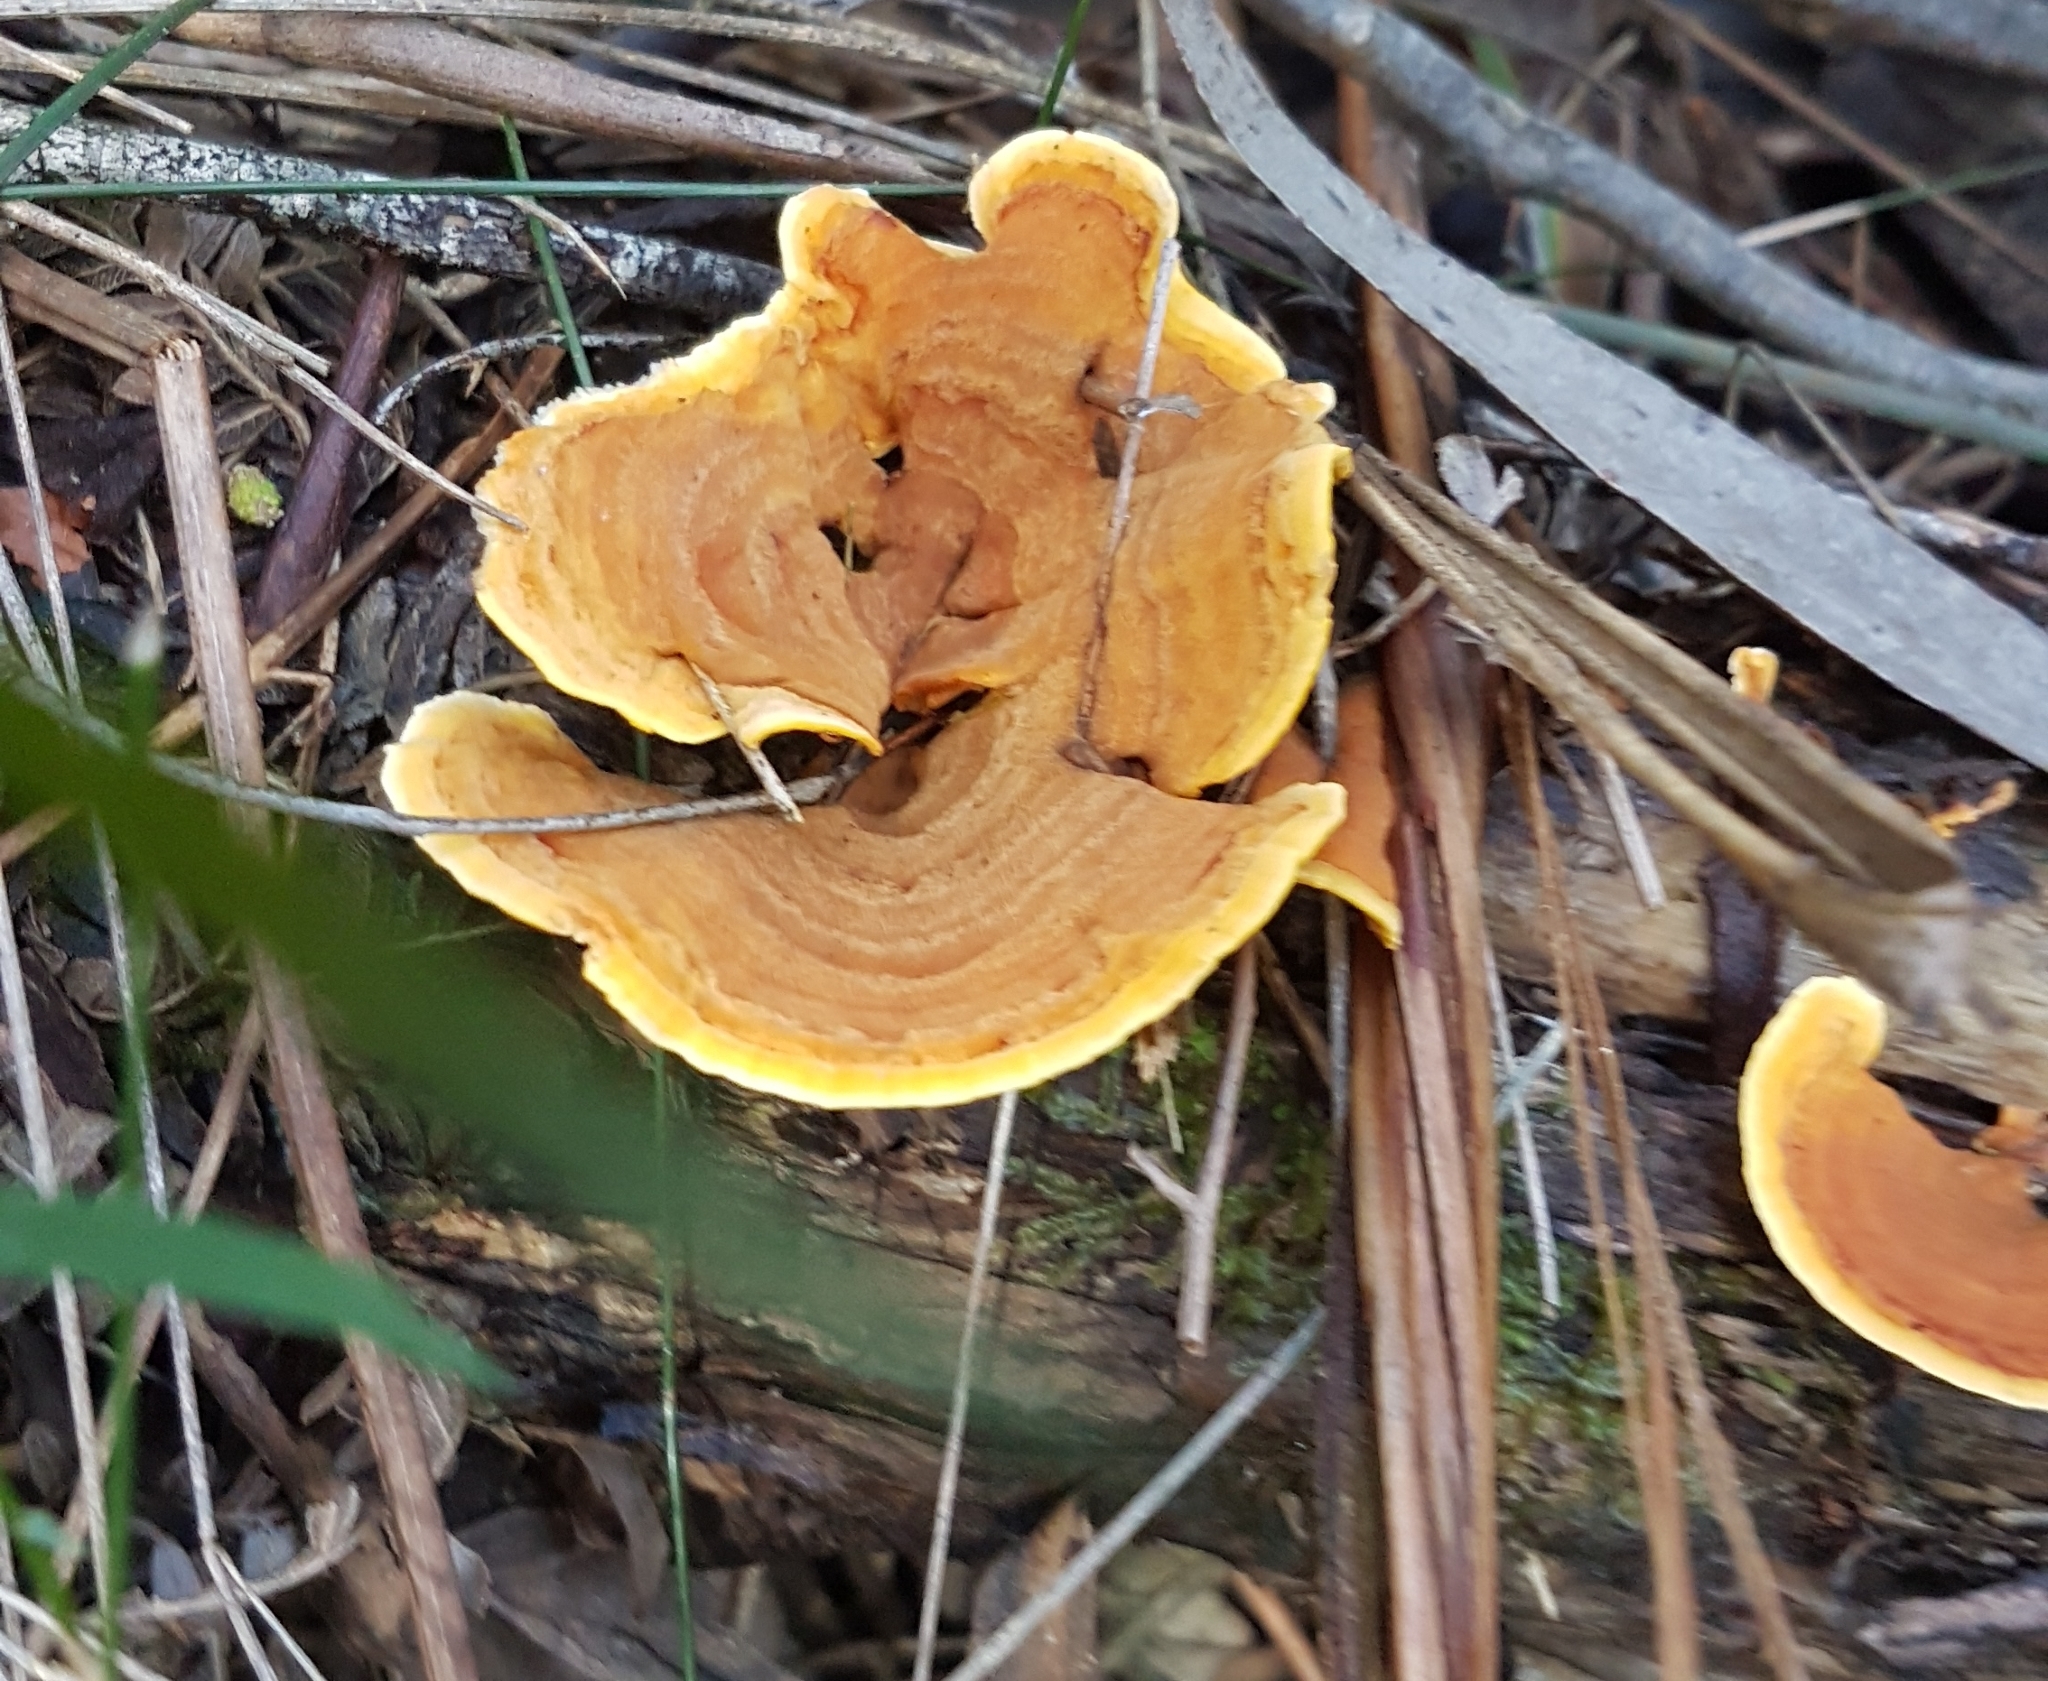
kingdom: Fungi
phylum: Basidiomycota
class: Agaricomycetes
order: Russulales
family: Stereaceae
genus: Stereum
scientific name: Stereum versicolor
